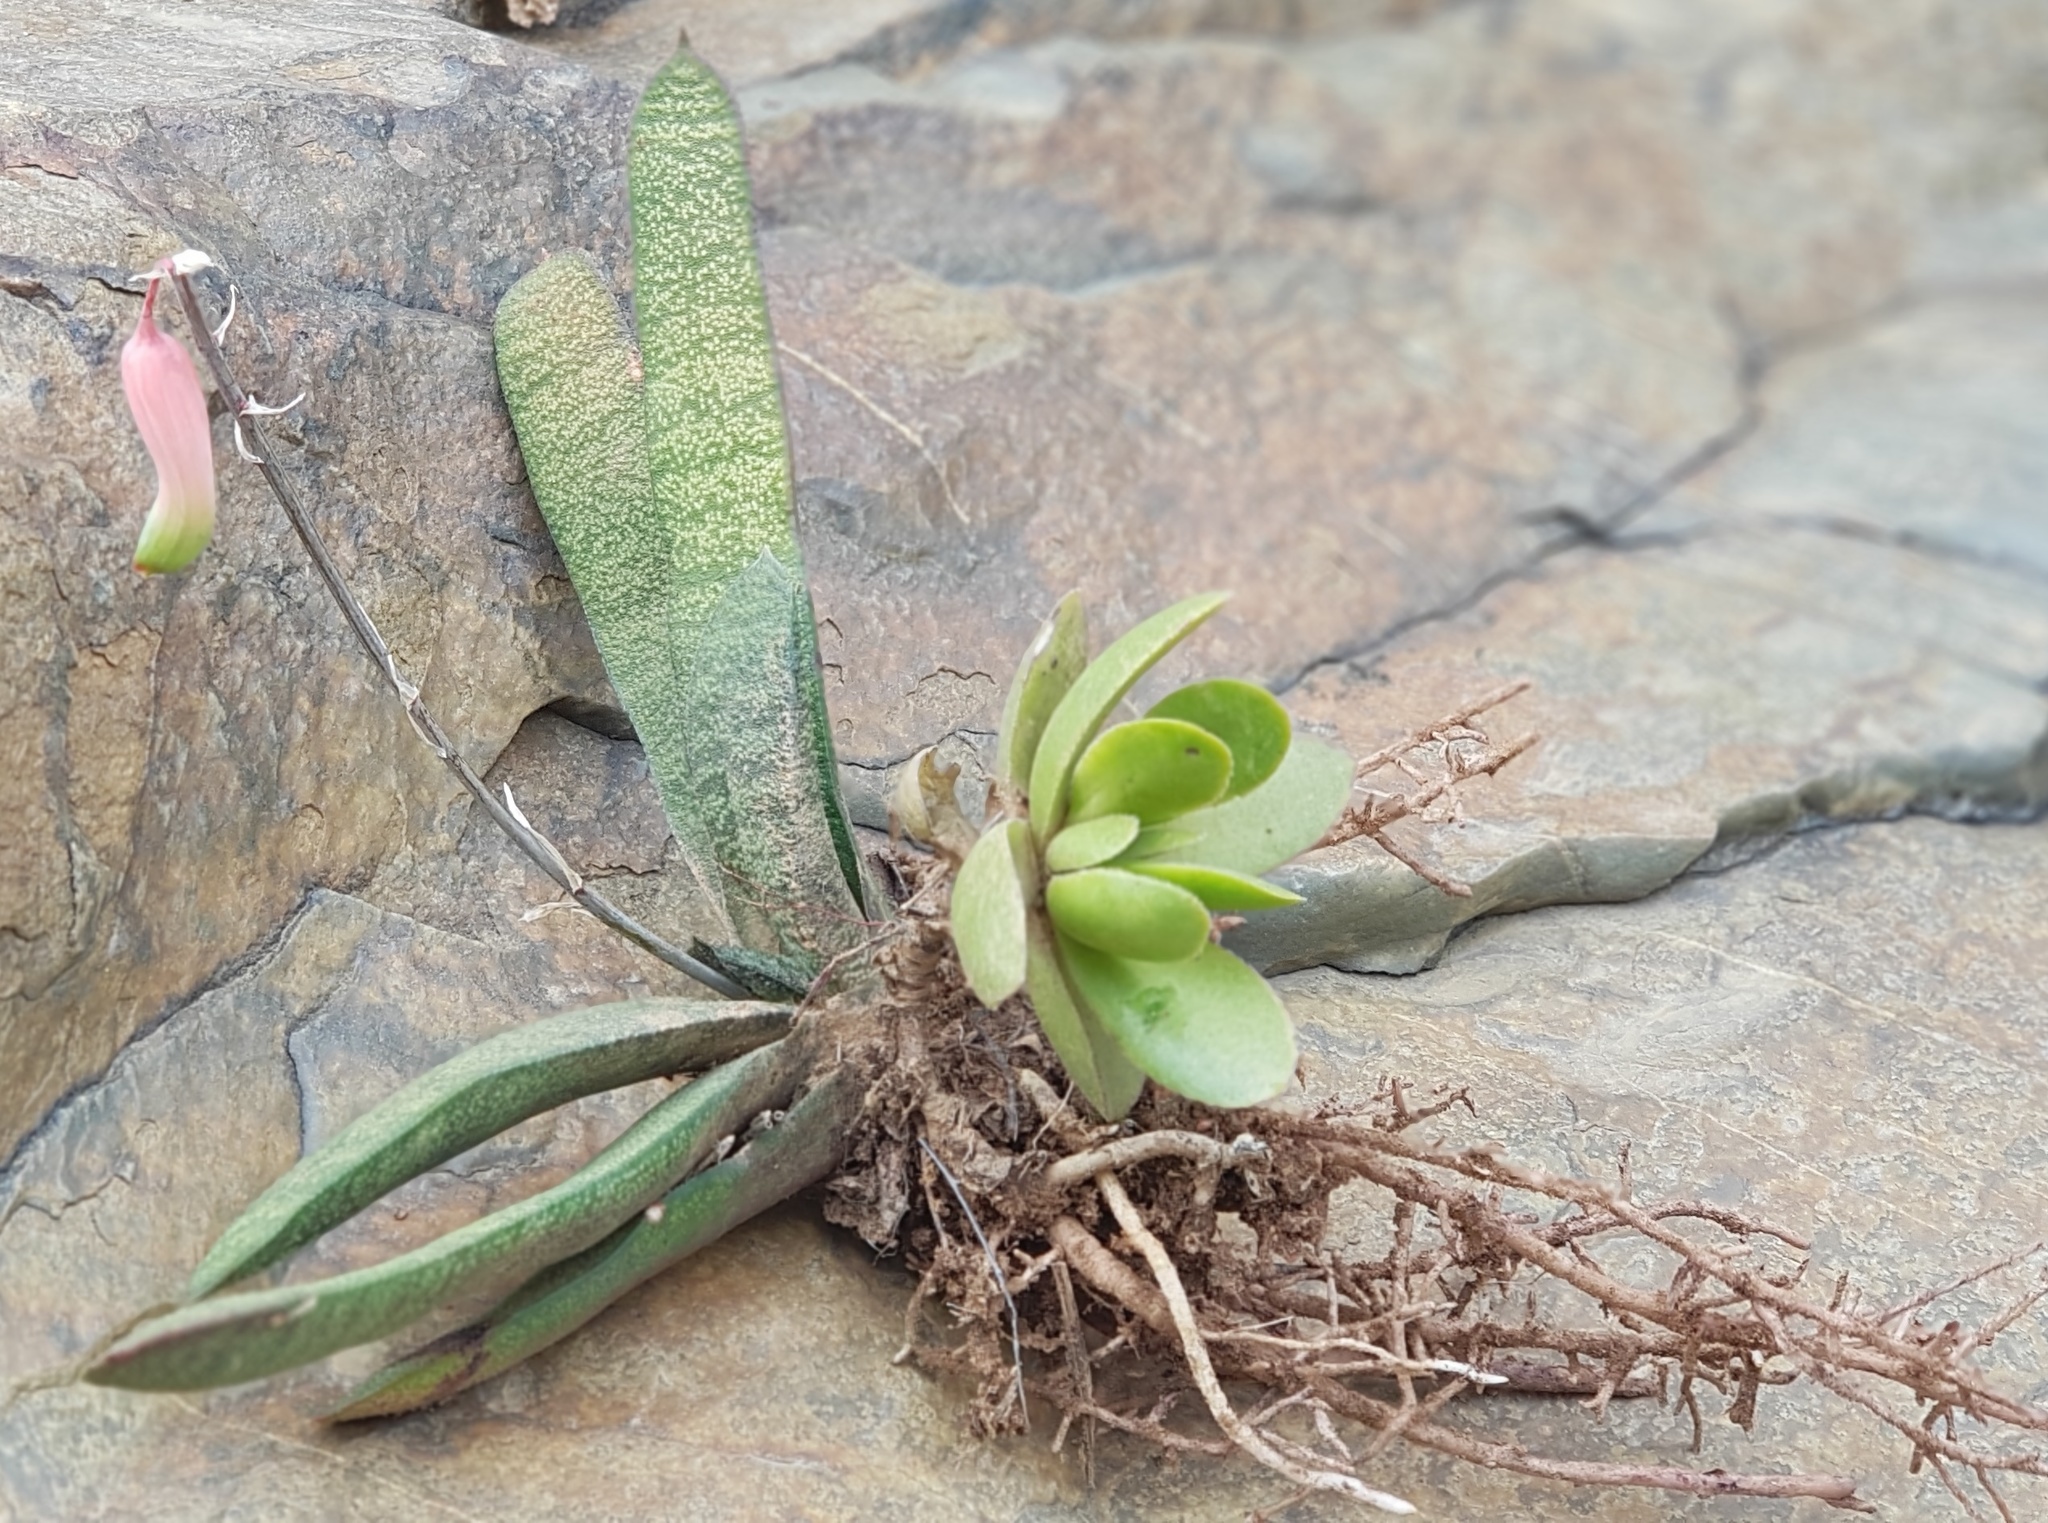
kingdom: Plantae
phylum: Tracheophyta
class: Liliopsida
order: Asparagales
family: Asphodelaceae
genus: Gasteria
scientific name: Gasteria batesiana
